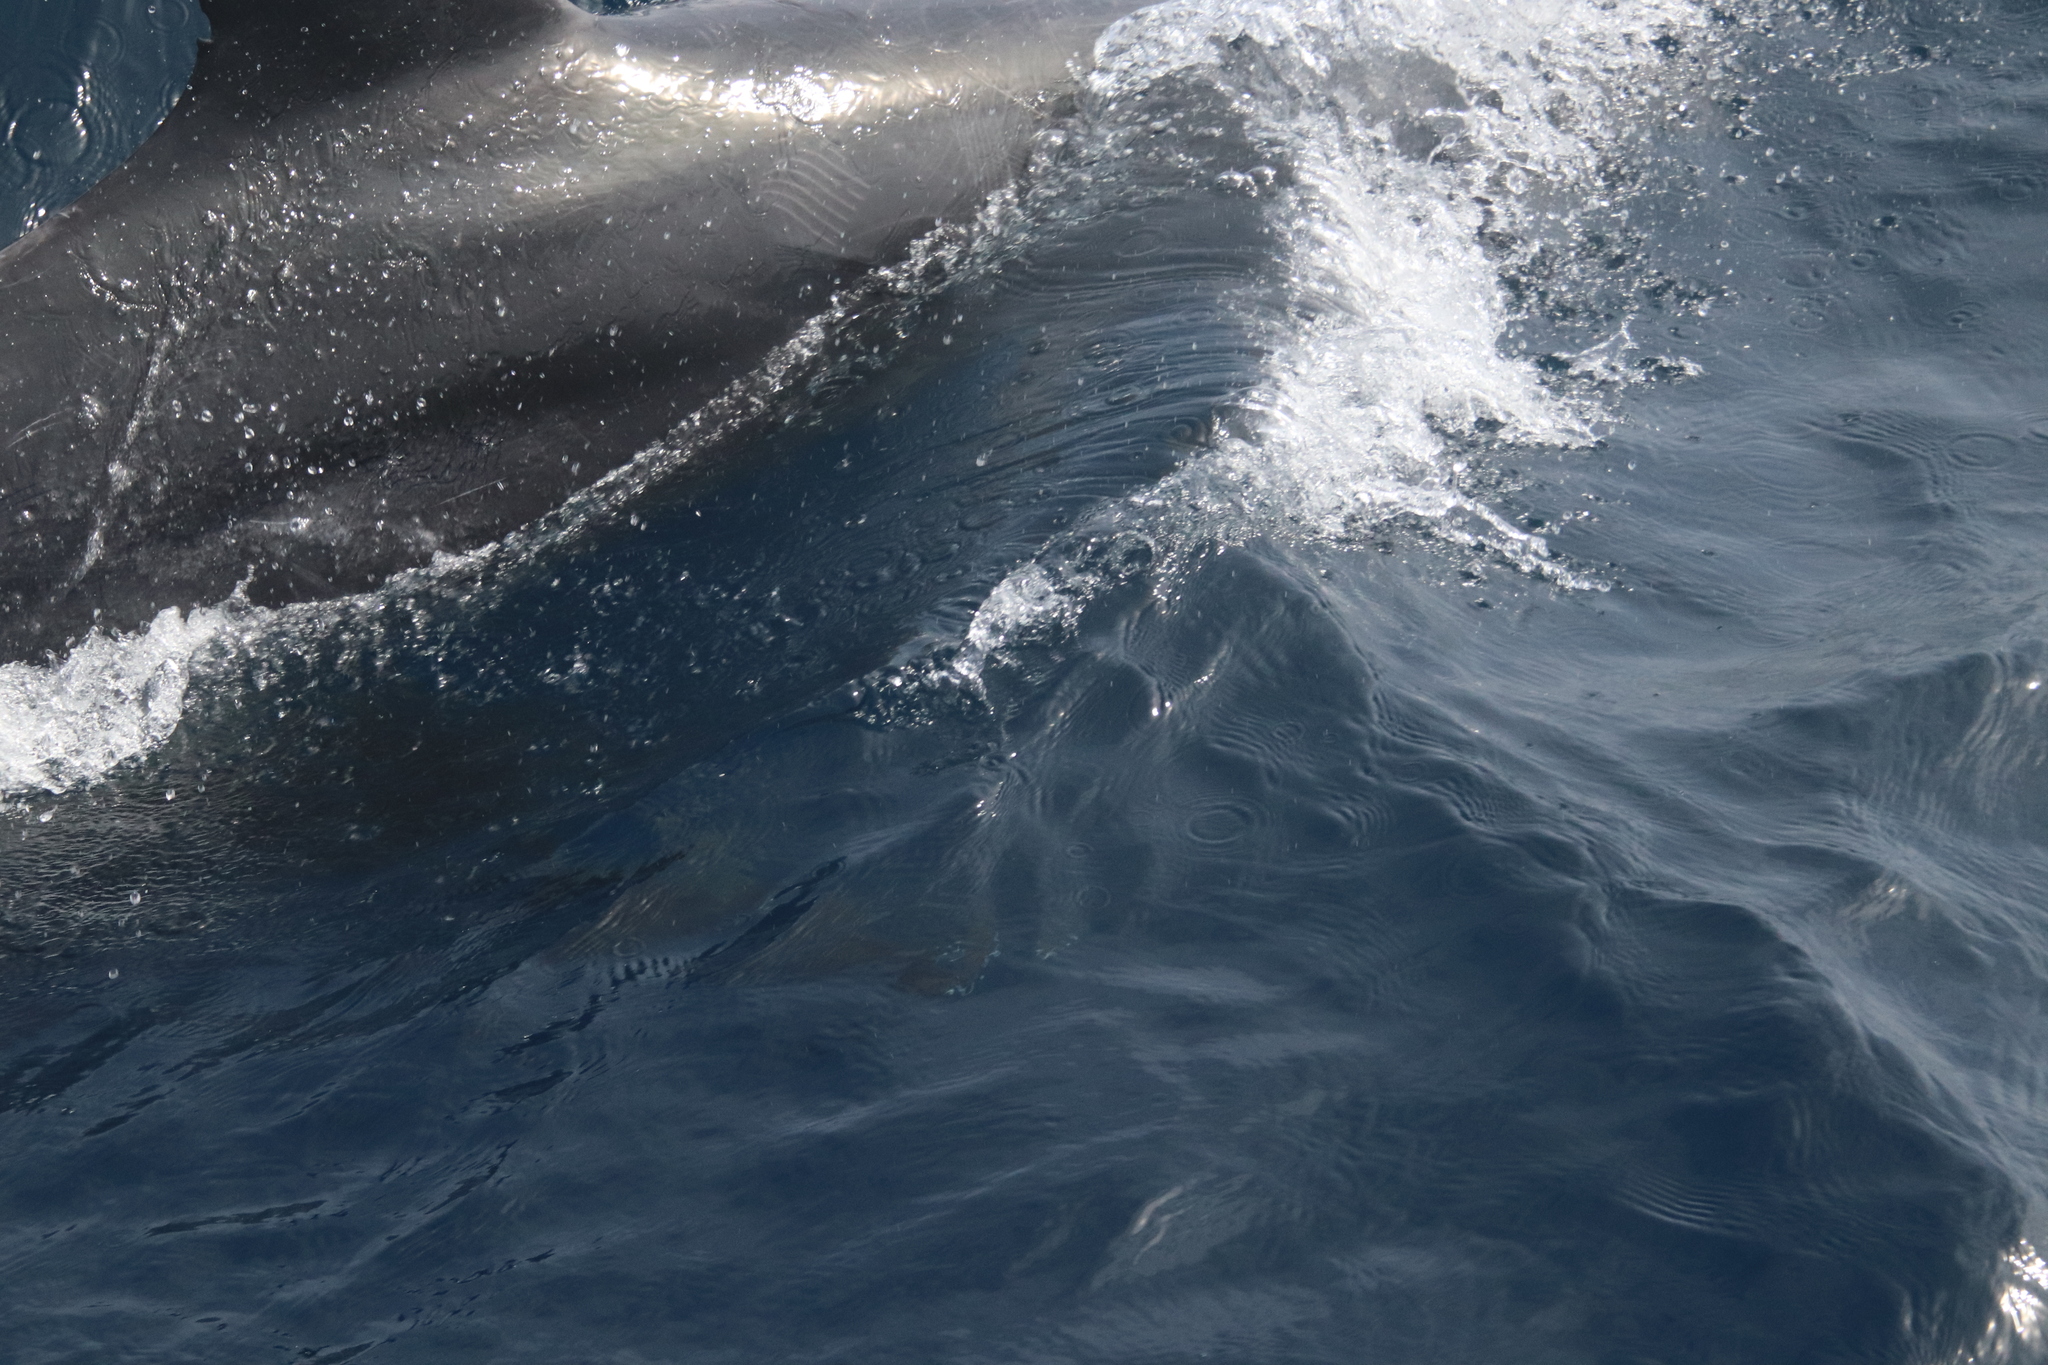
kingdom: Animalia
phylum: Chordata
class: Mammalia
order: Cetacea
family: Delphinidae
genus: Tursiops
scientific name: Tursiops truncatus
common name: Bottlenose dolphin
